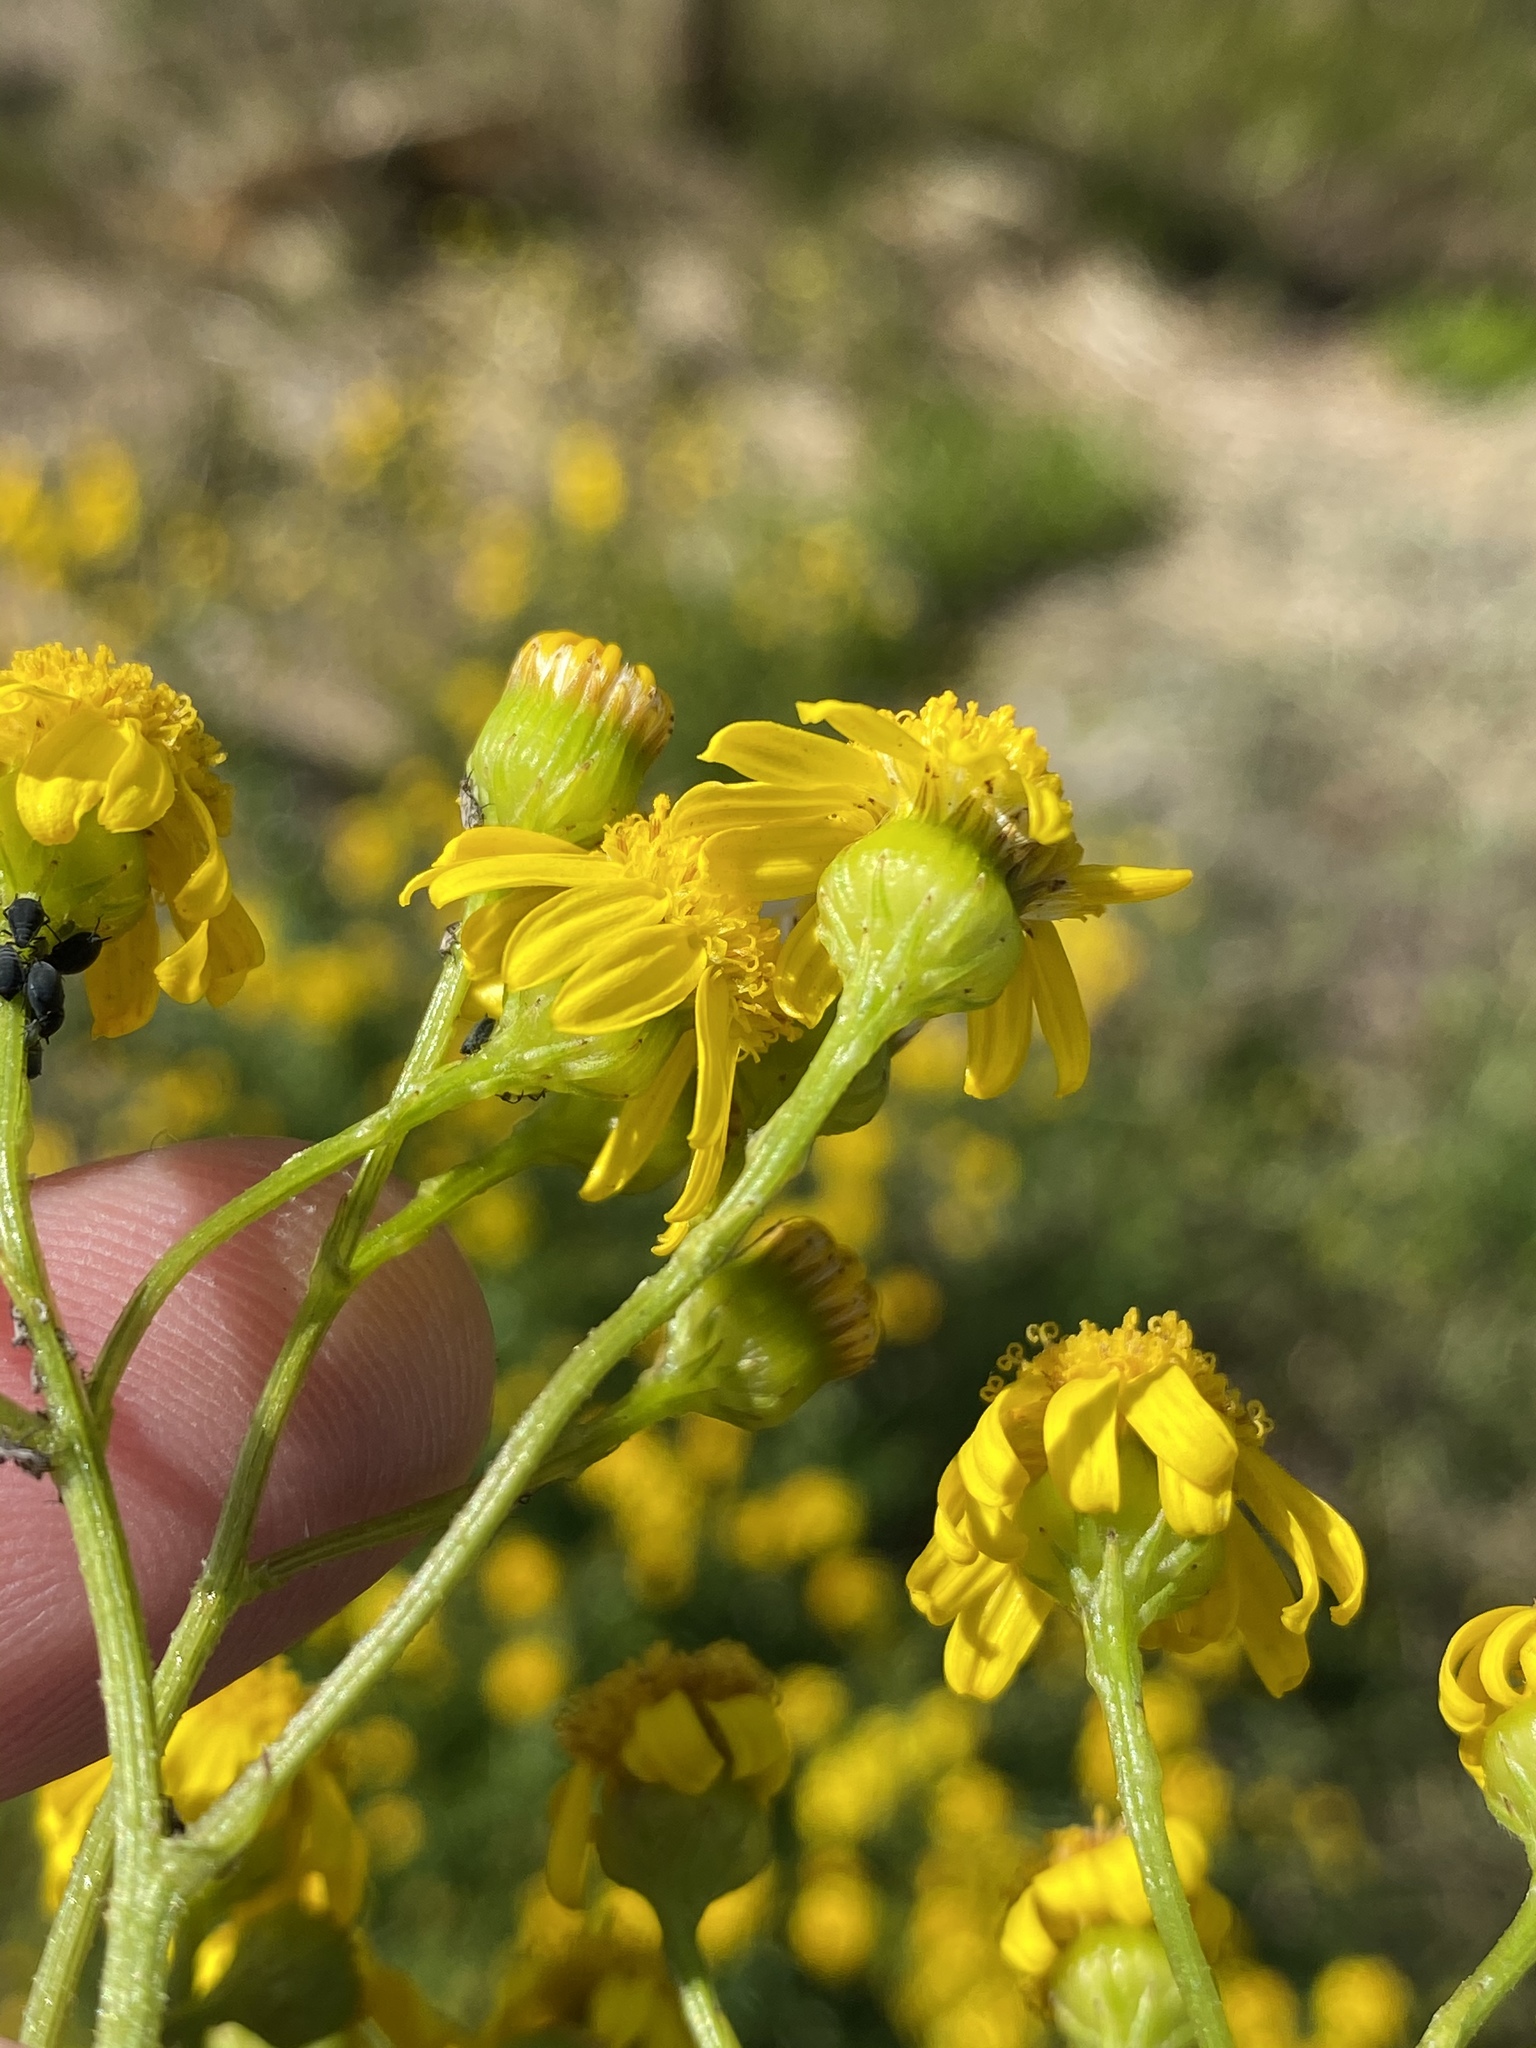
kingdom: Plantae
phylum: Tracheophyta
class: Magnoliopsida
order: Asterales
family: Asteraceae
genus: Senecio
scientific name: Senecio ilicifolius
